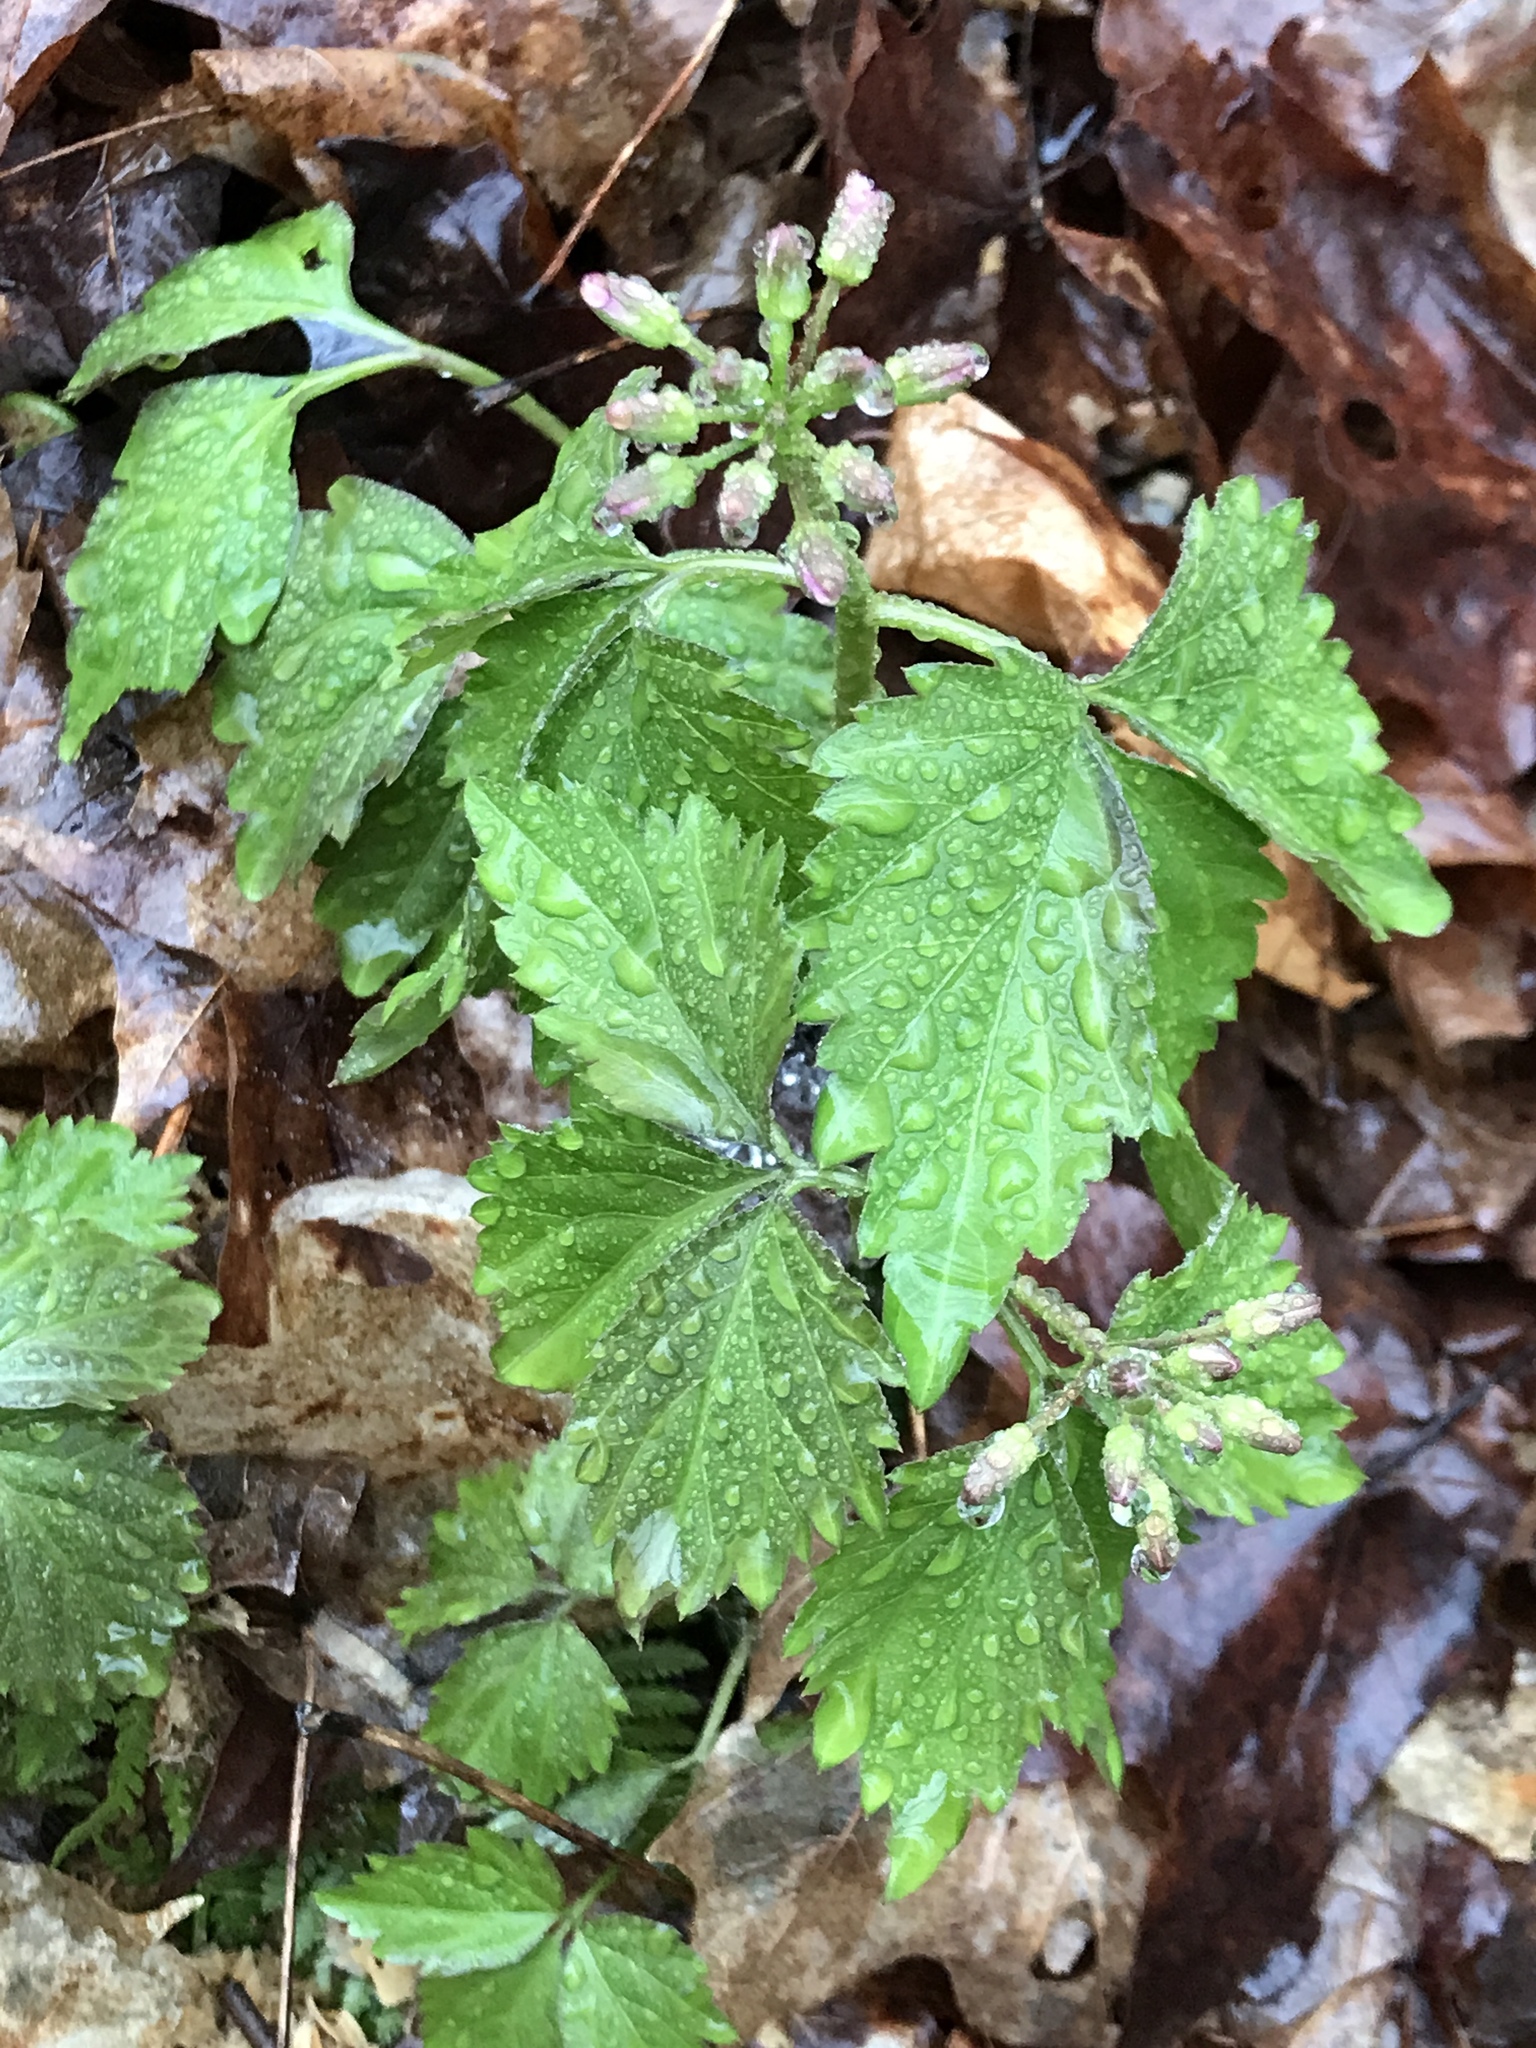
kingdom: Plantae
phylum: Tracheophyta
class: Magnoliopsida
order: Brassicales
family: Brassicaceae
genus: Cardamine
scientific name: Cardamine diphylla
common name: Broad-leaved toothwort
